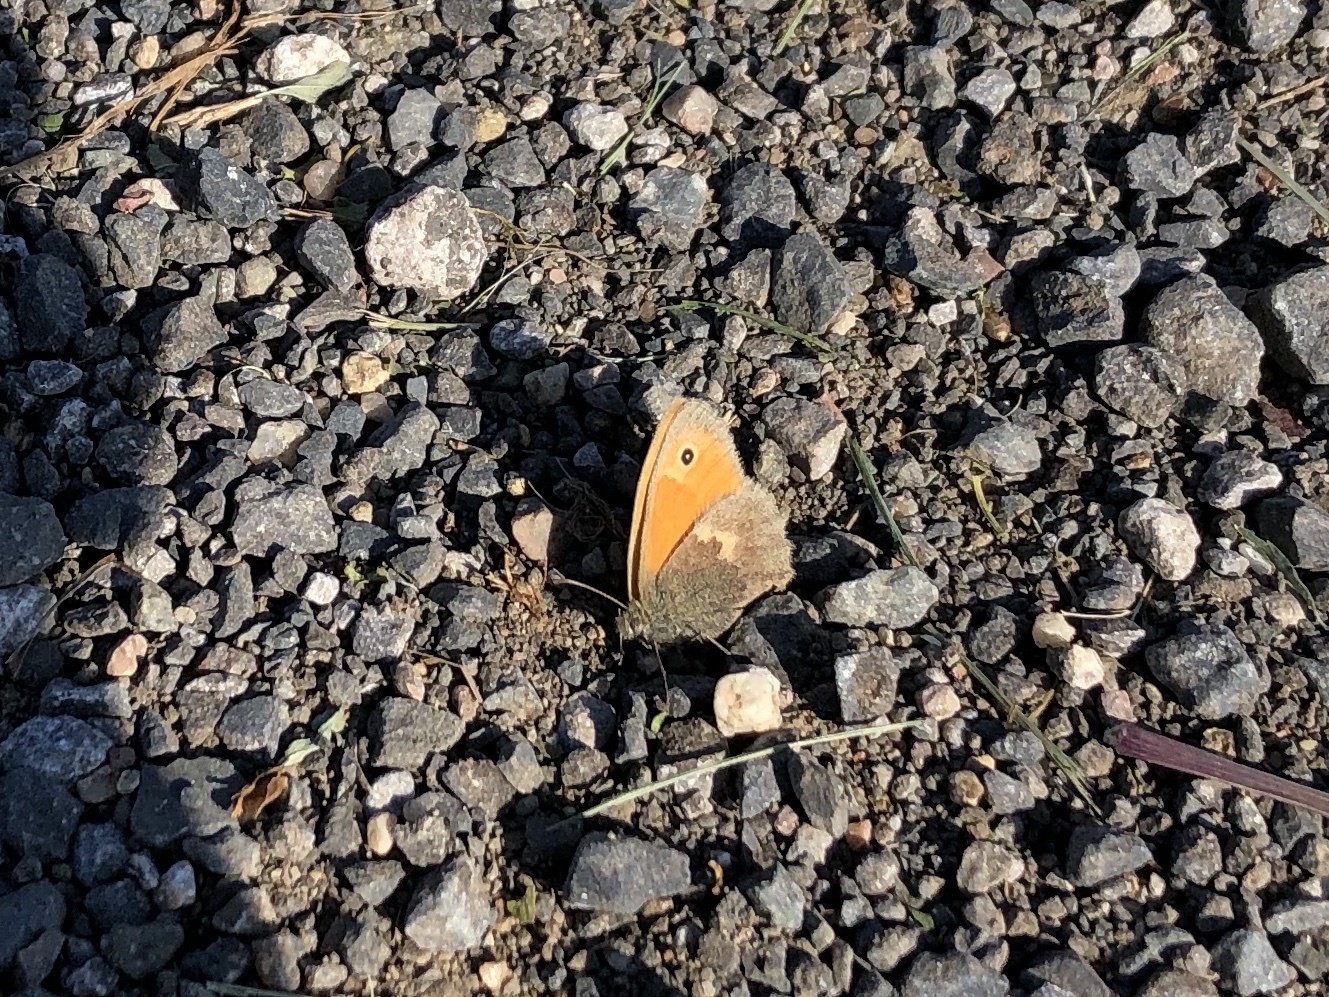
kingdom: Animalia
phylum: Arthropoda
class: Insecta
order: Lepidoptera
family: Nymphalidae
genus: Coenonympha
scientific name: Coenonympha pamphilus
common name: Small heath
